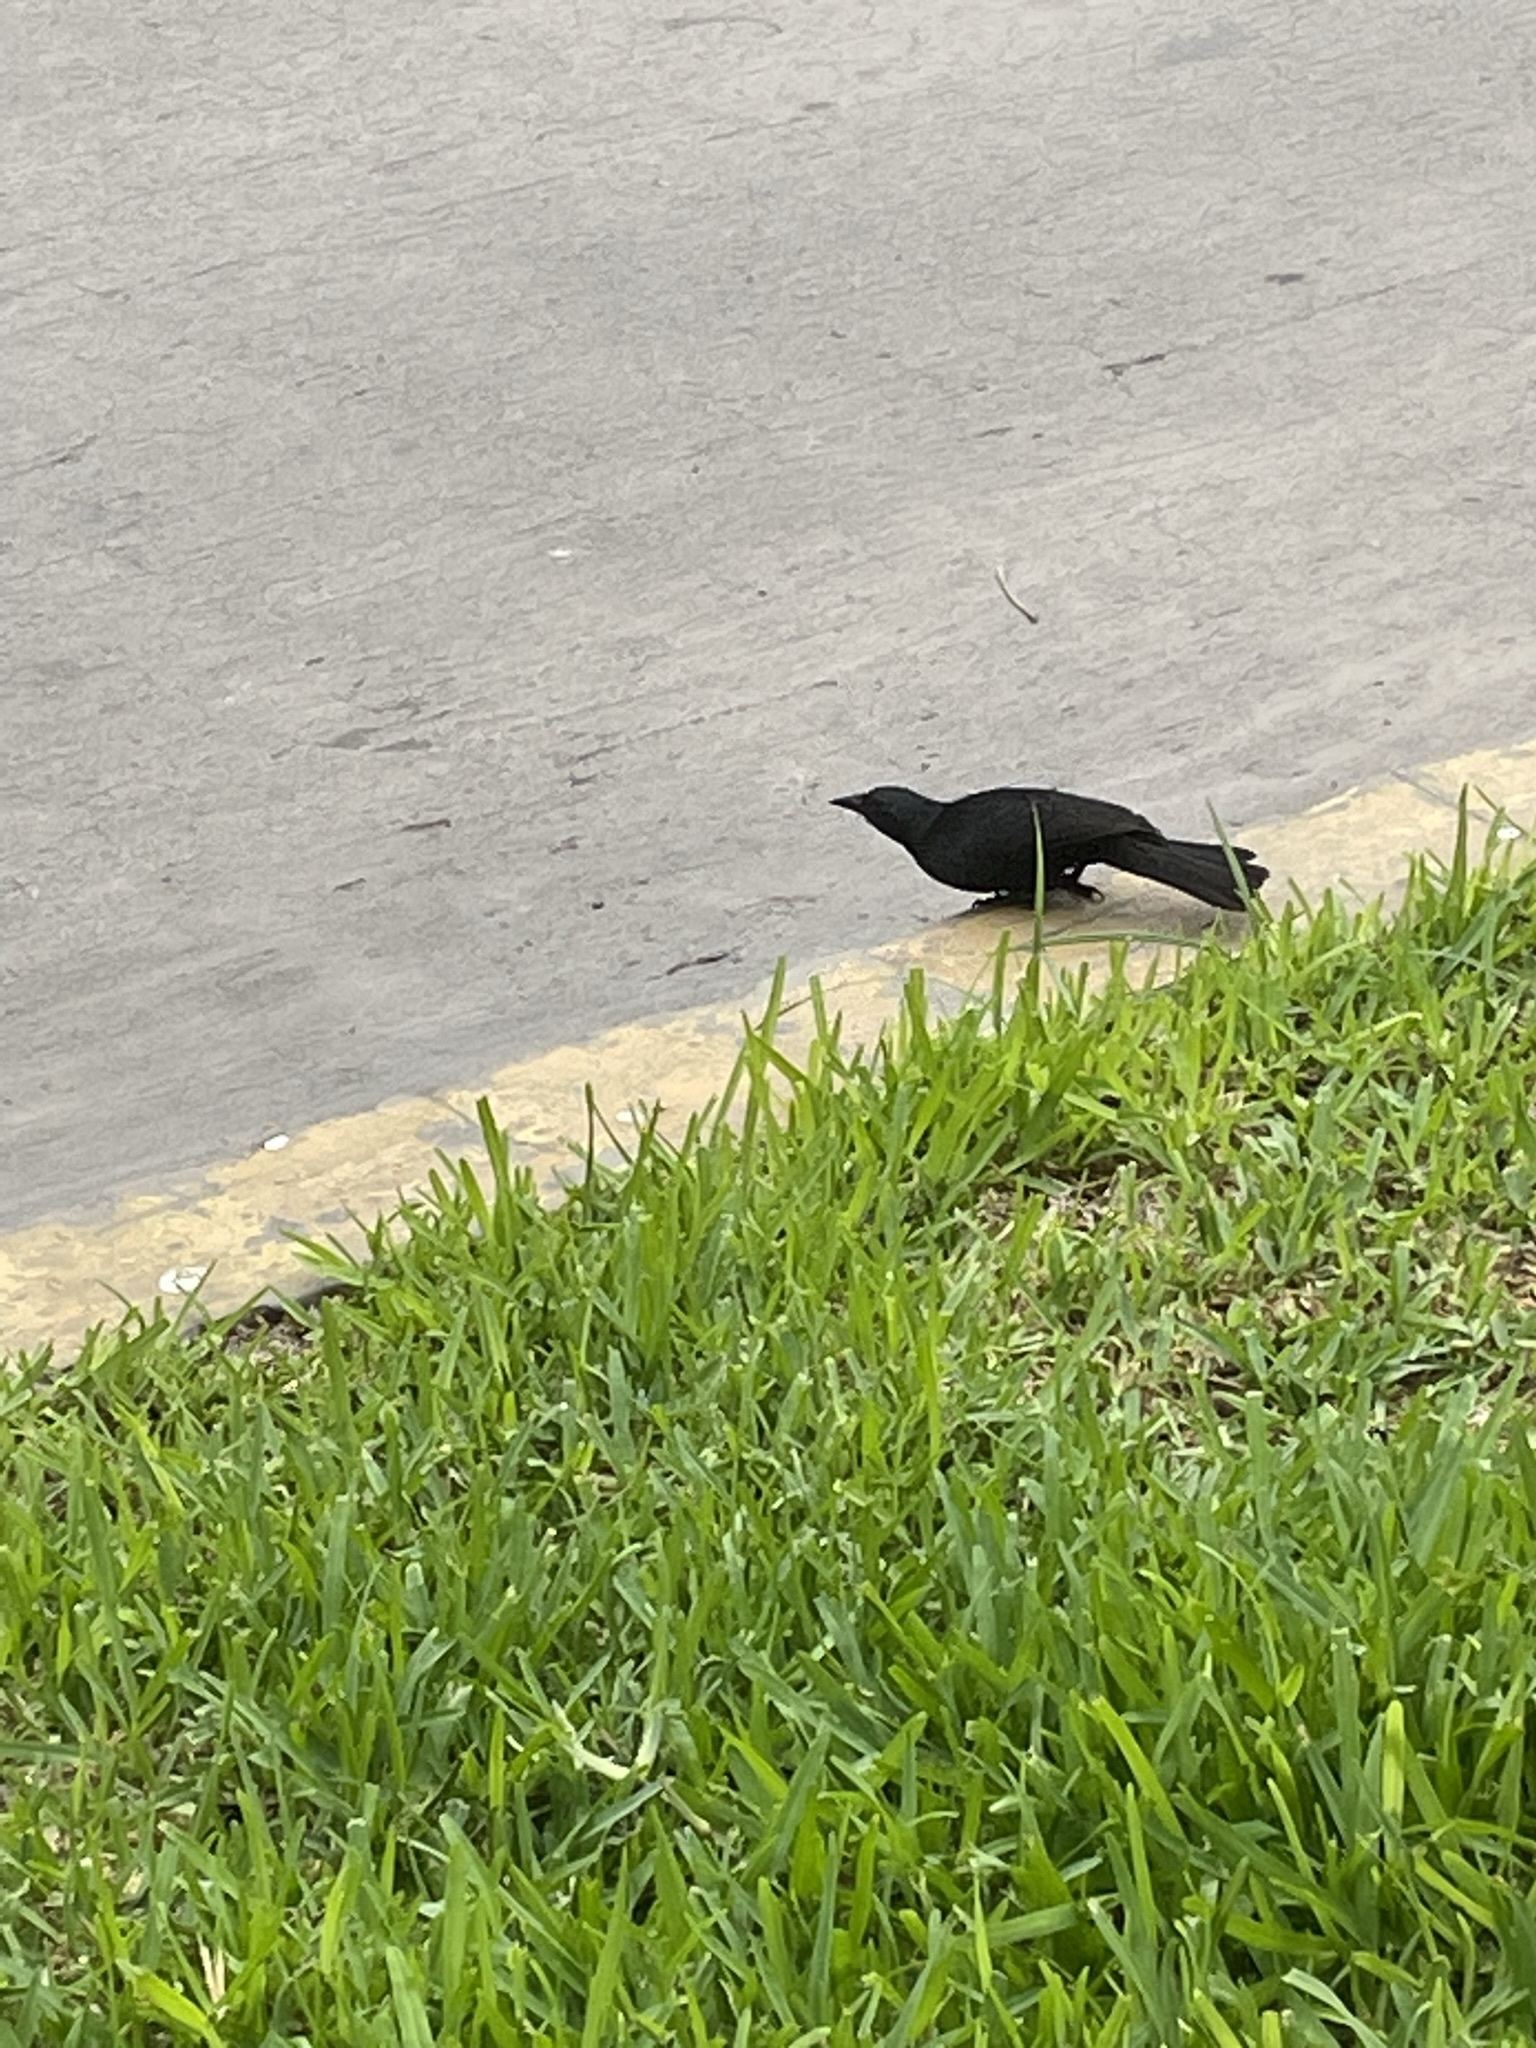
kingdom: Animalia
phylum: Chordata
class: Aves
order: Passeriformes
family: Icteridae
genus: Dives
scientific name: Dives warczewiczi
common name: Scrub blackbird
